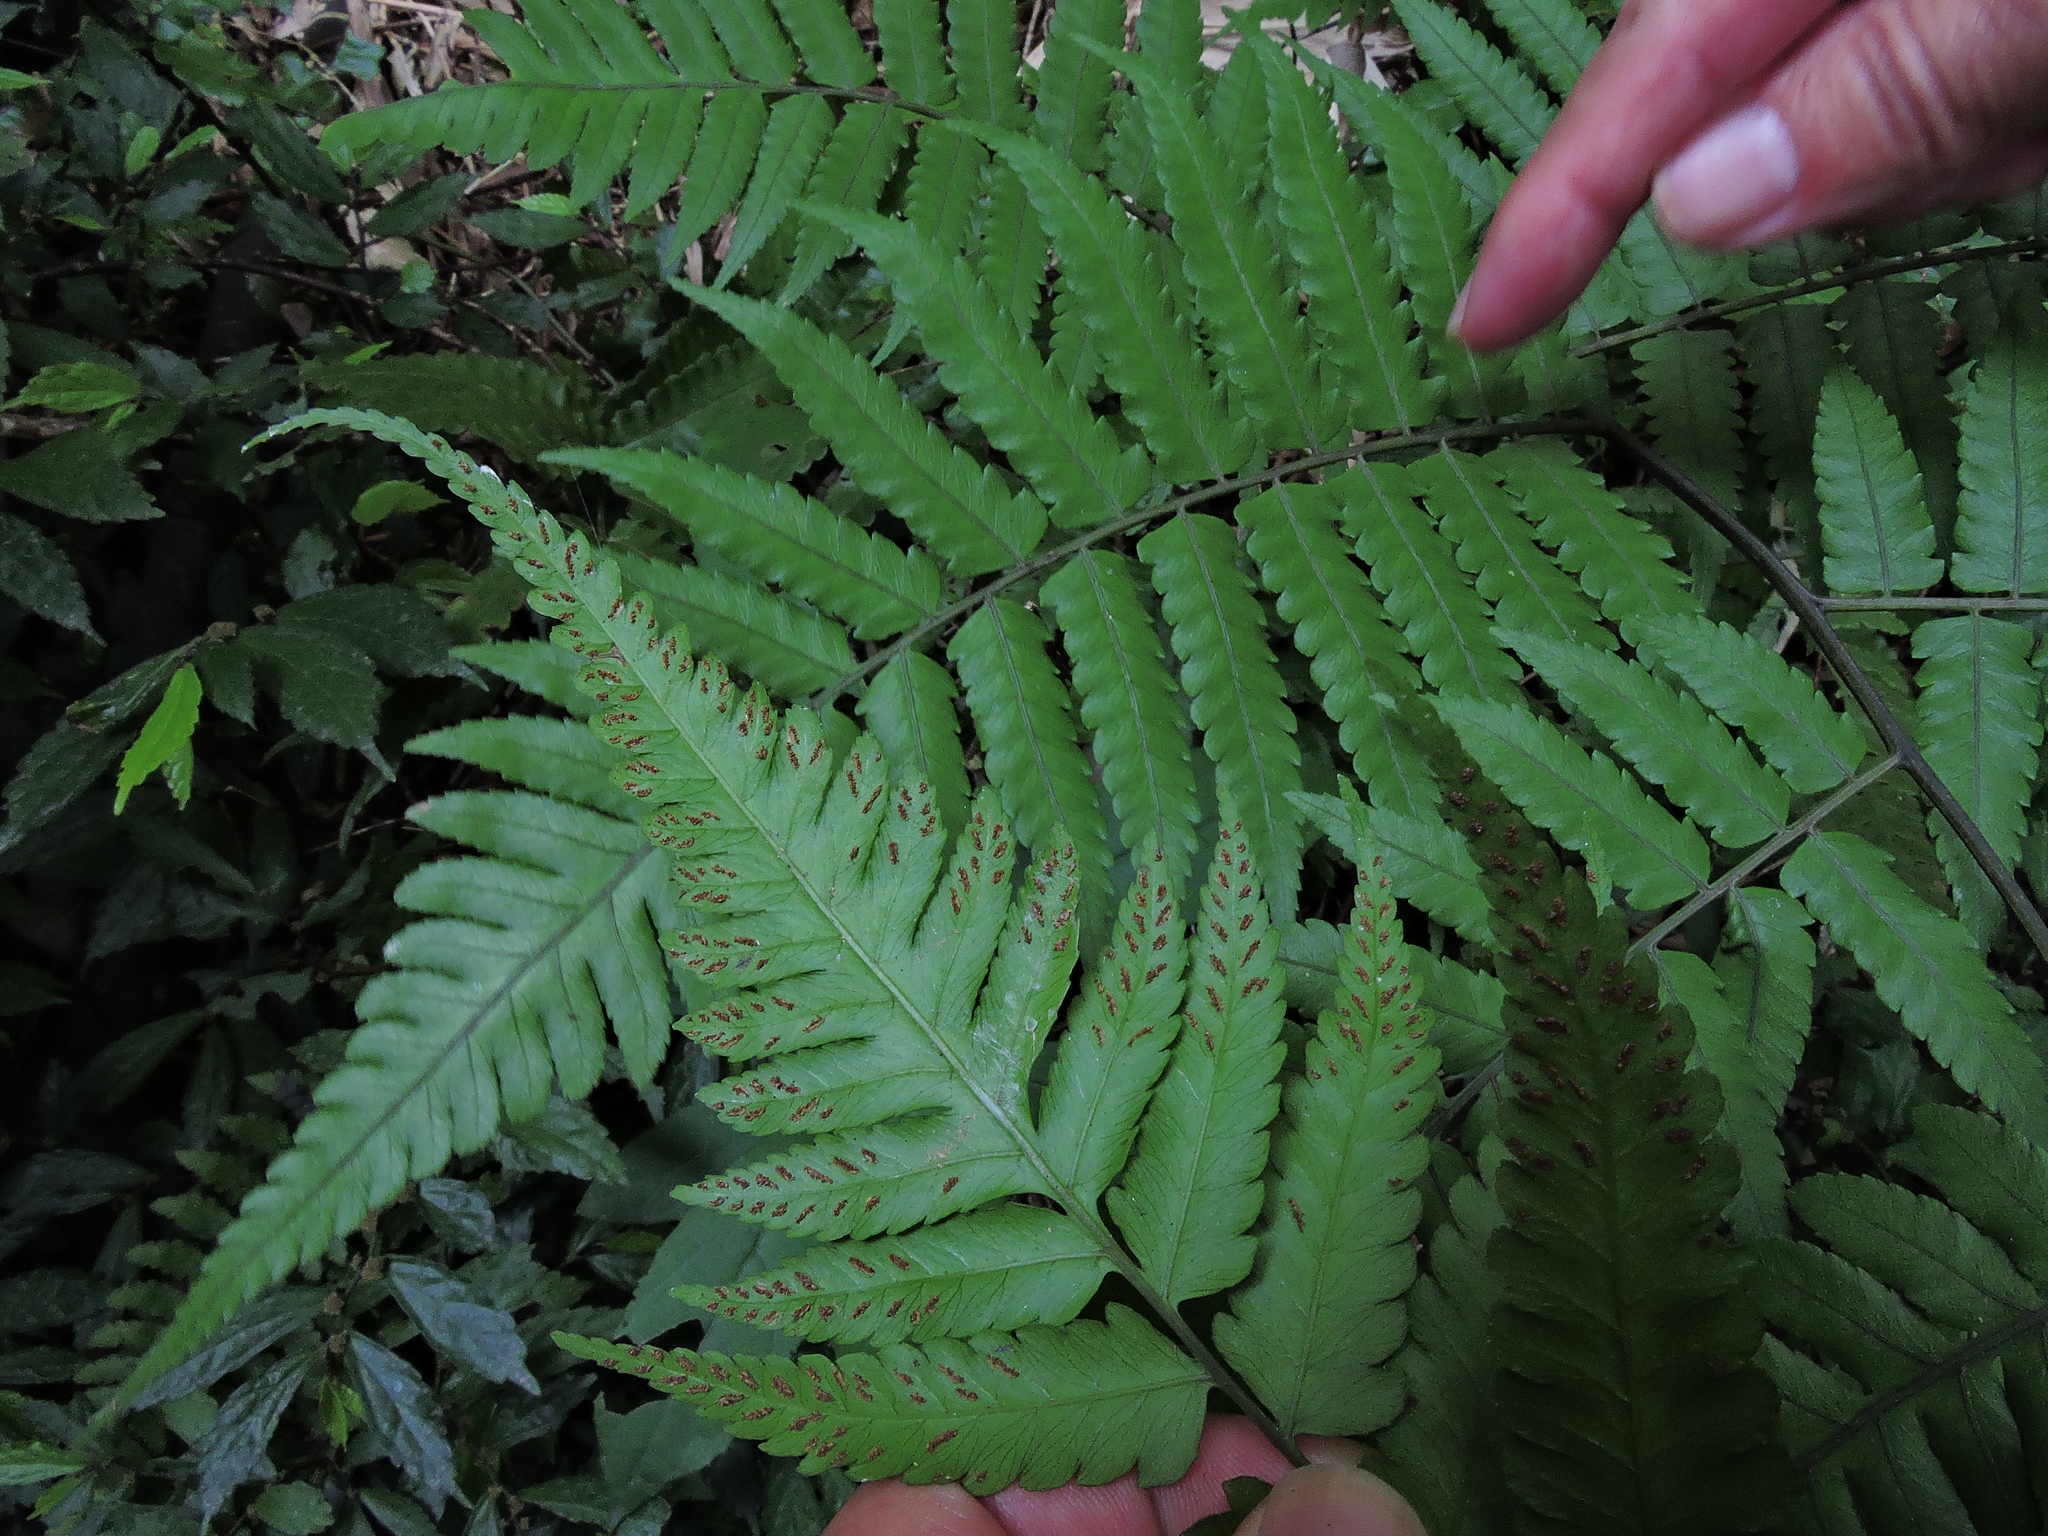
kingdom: Plantae
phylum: Tracheophyta
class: Polypodiopsida
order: Polypodiales
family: Athyriaceae
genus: Diplazium
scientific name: Diplazium taiwanense
